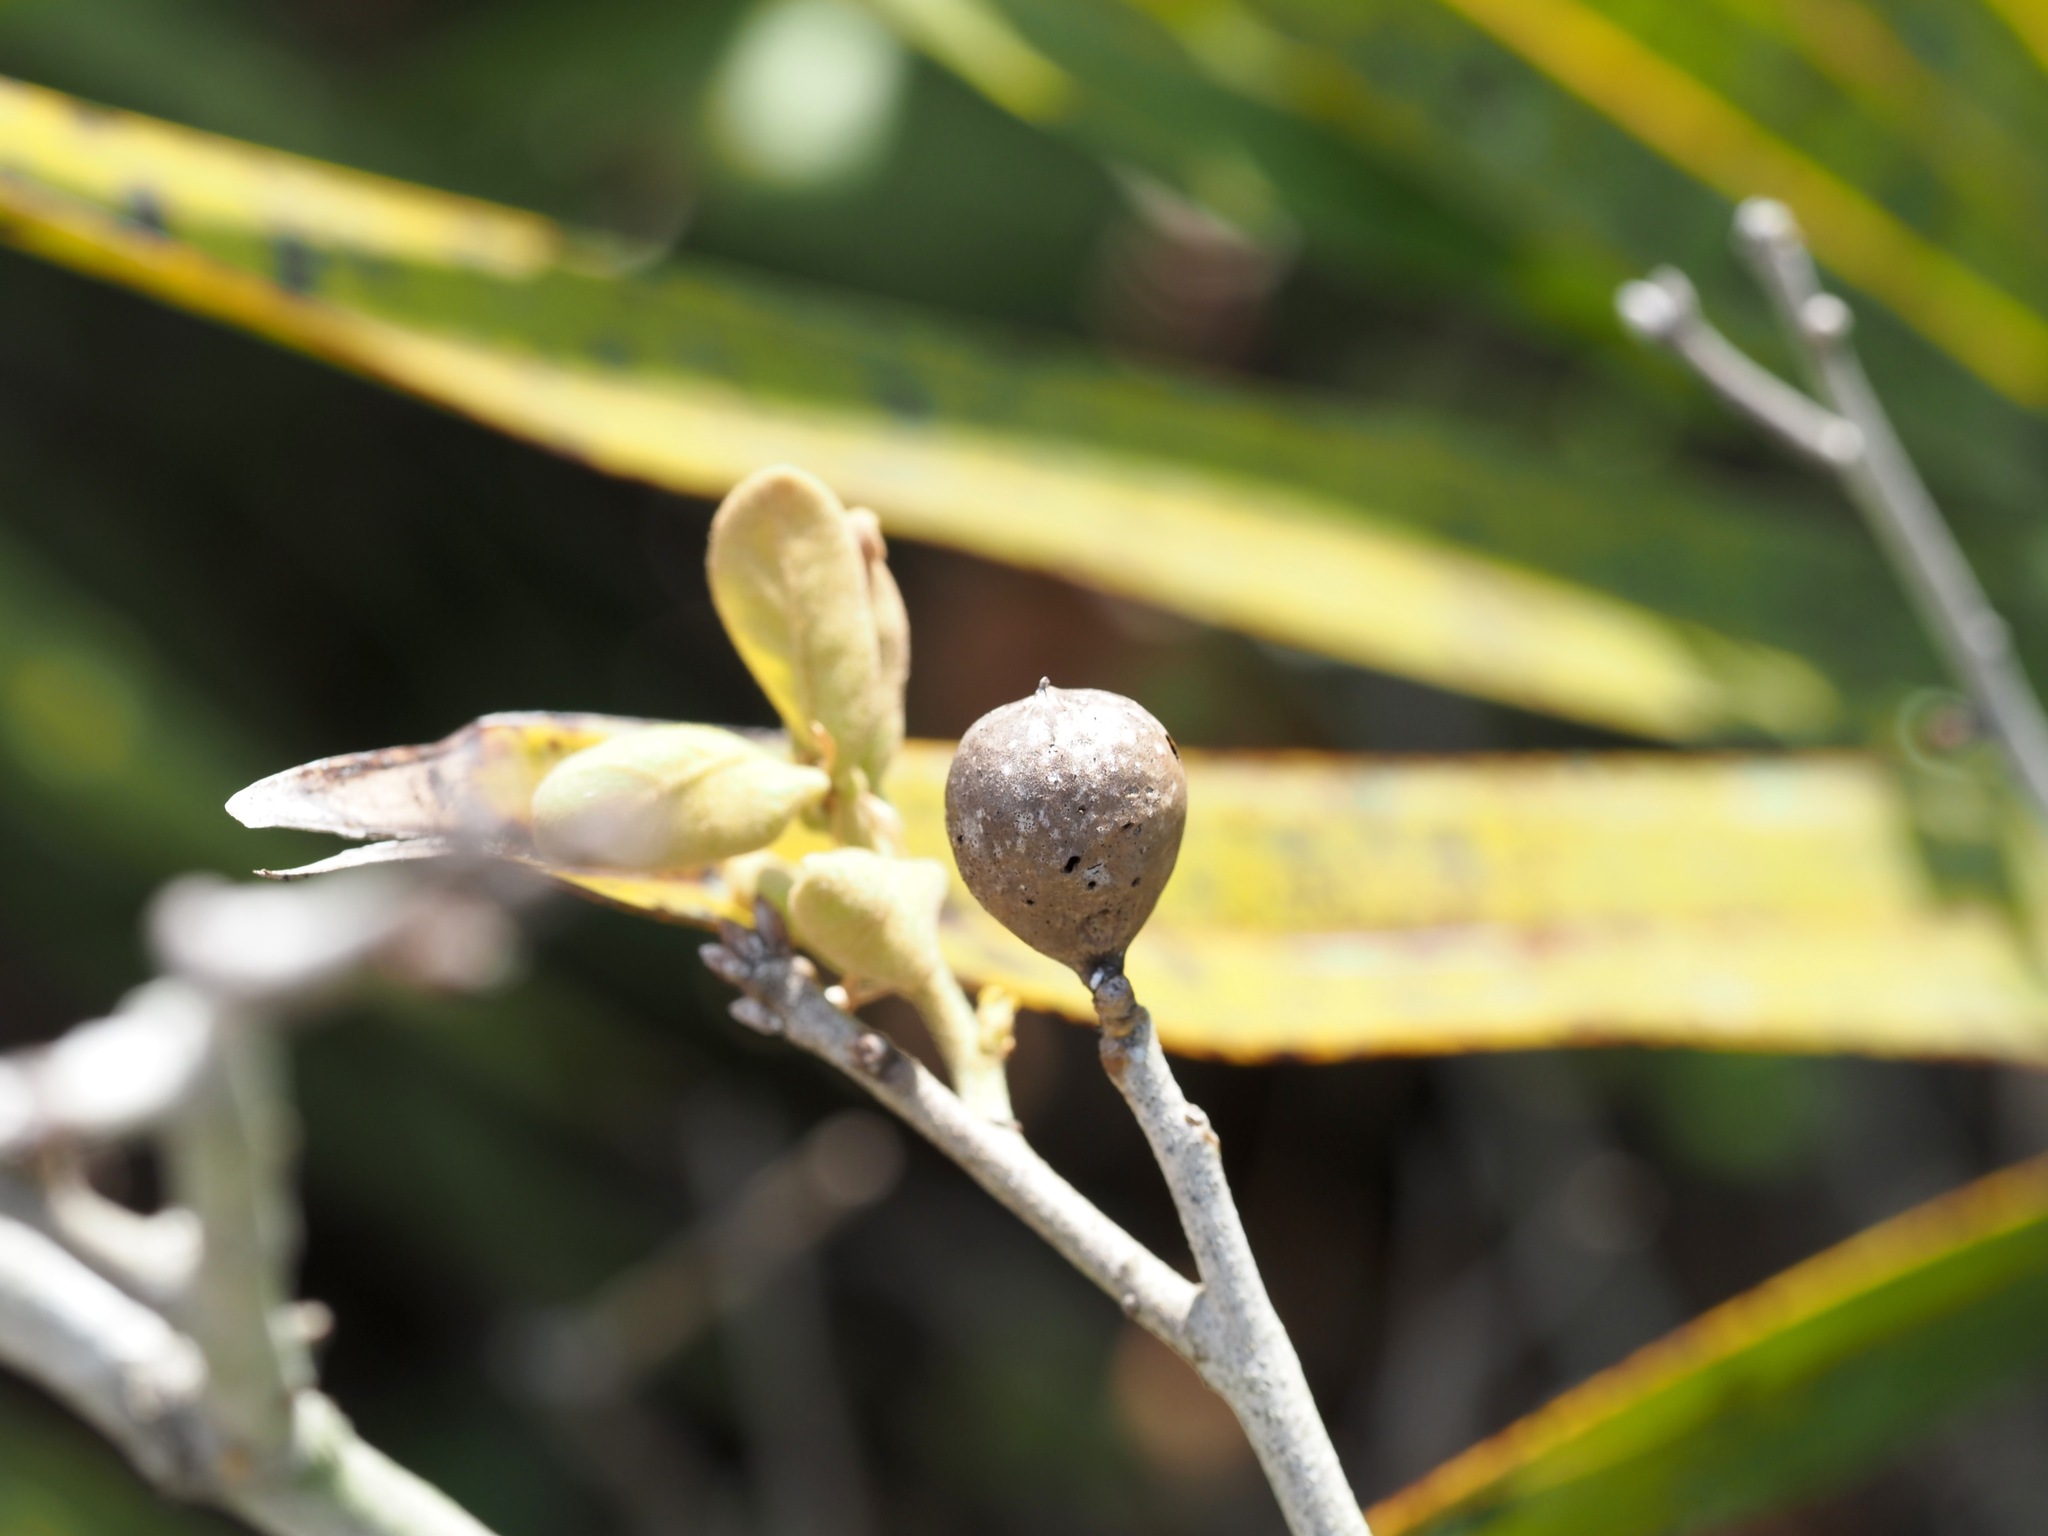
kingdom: Animalia
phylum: Arthropoda
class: Insecta
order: Hymenoptera
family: Cynipidae
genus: Amphibolips
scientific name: Amphibolips
